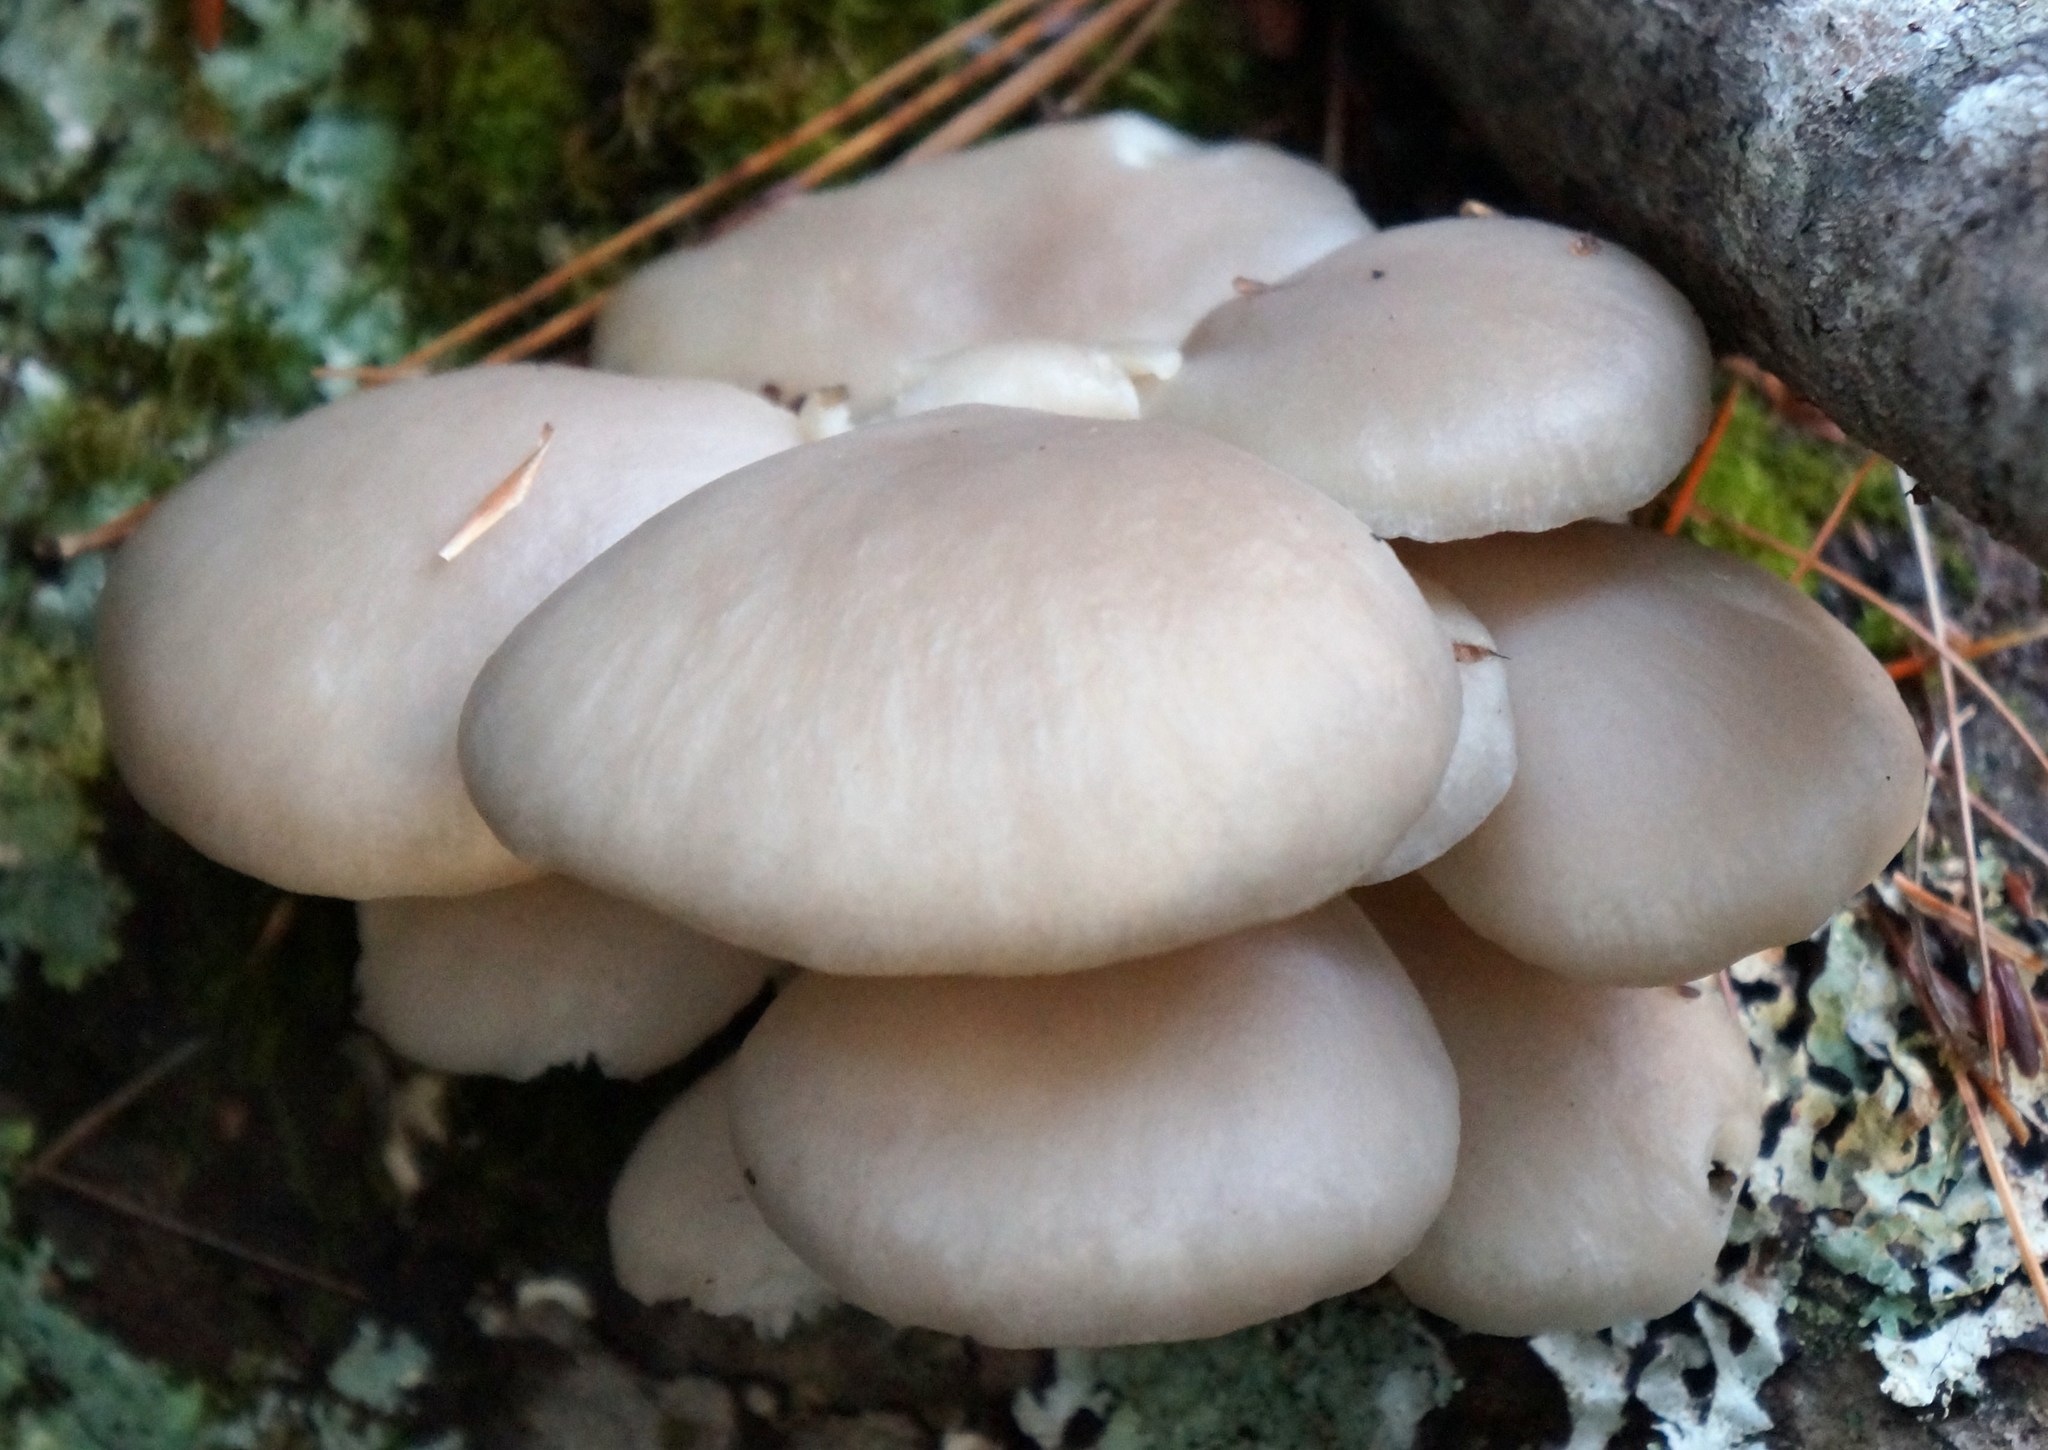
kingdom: Fungi
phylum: Basidiomycota
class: Agaricomycetes
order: Agaricales
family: Pleurotaceae
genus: Pleurotus
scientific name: Pleurotus populinus
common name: Aspen oyster mushroom
